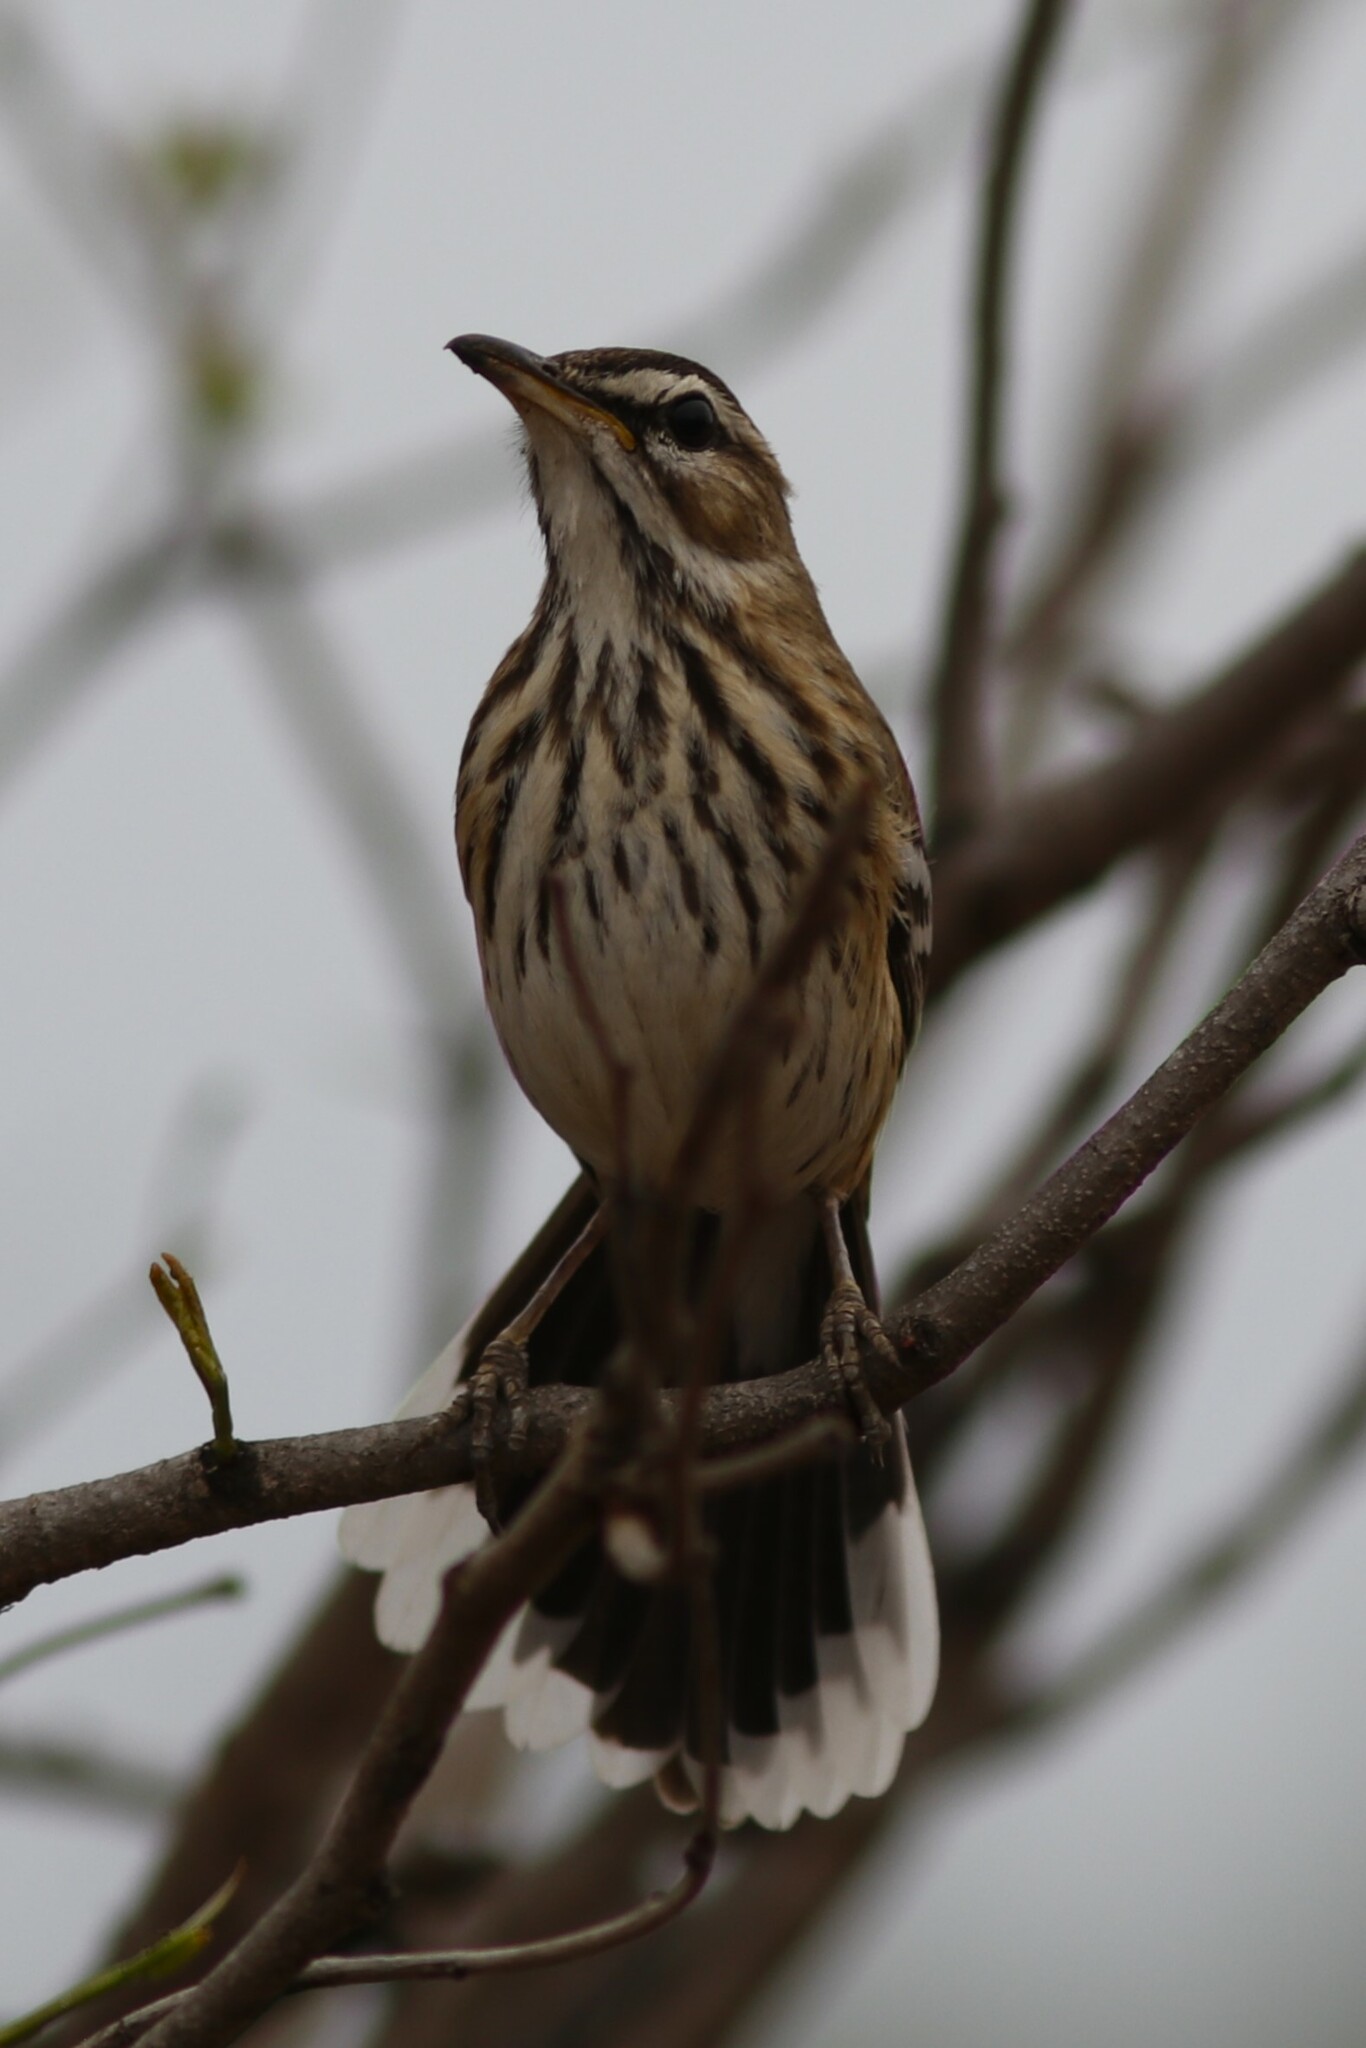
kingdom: Animalia
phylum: Chordata
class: Aves
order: Passeriformes
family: Muscicapidae
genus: Erythropygia
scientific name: Erythropygia leucophrys
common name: White-browed scrub robin
